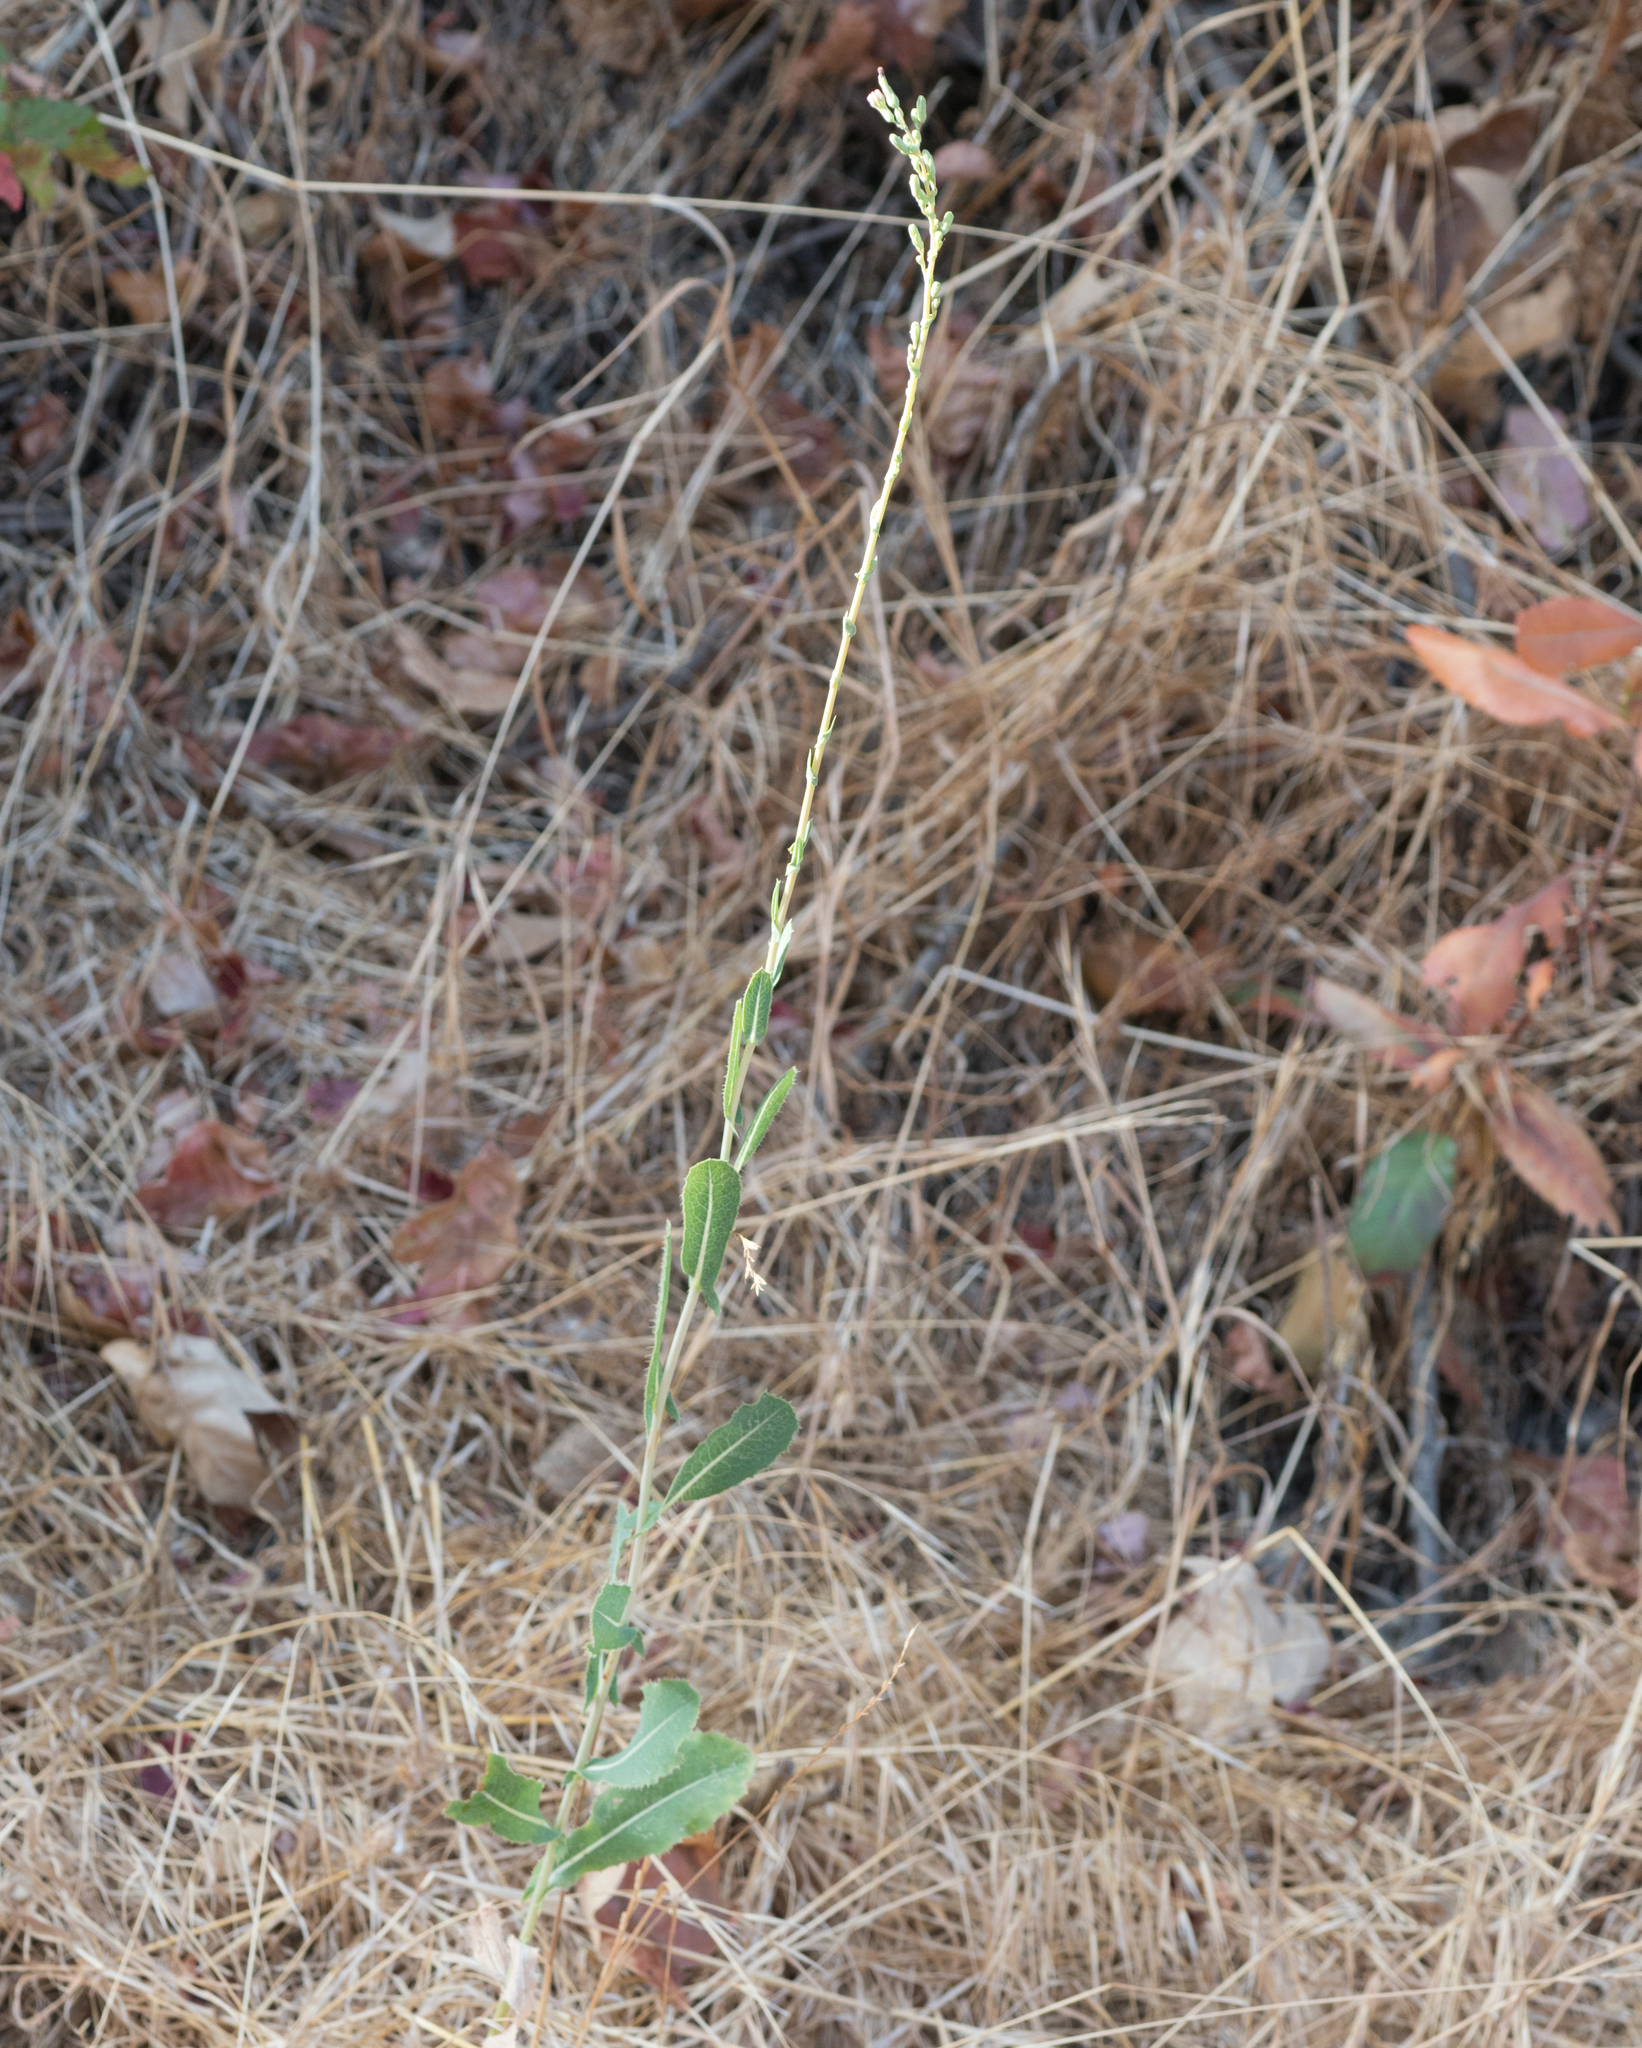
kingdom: Plantae
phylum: Tracheophyta
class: Magnoliopsida
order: Asterales
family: Asteraceae
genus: Lactuca
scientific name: Lactuca serriola
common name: Prickly lettuce
